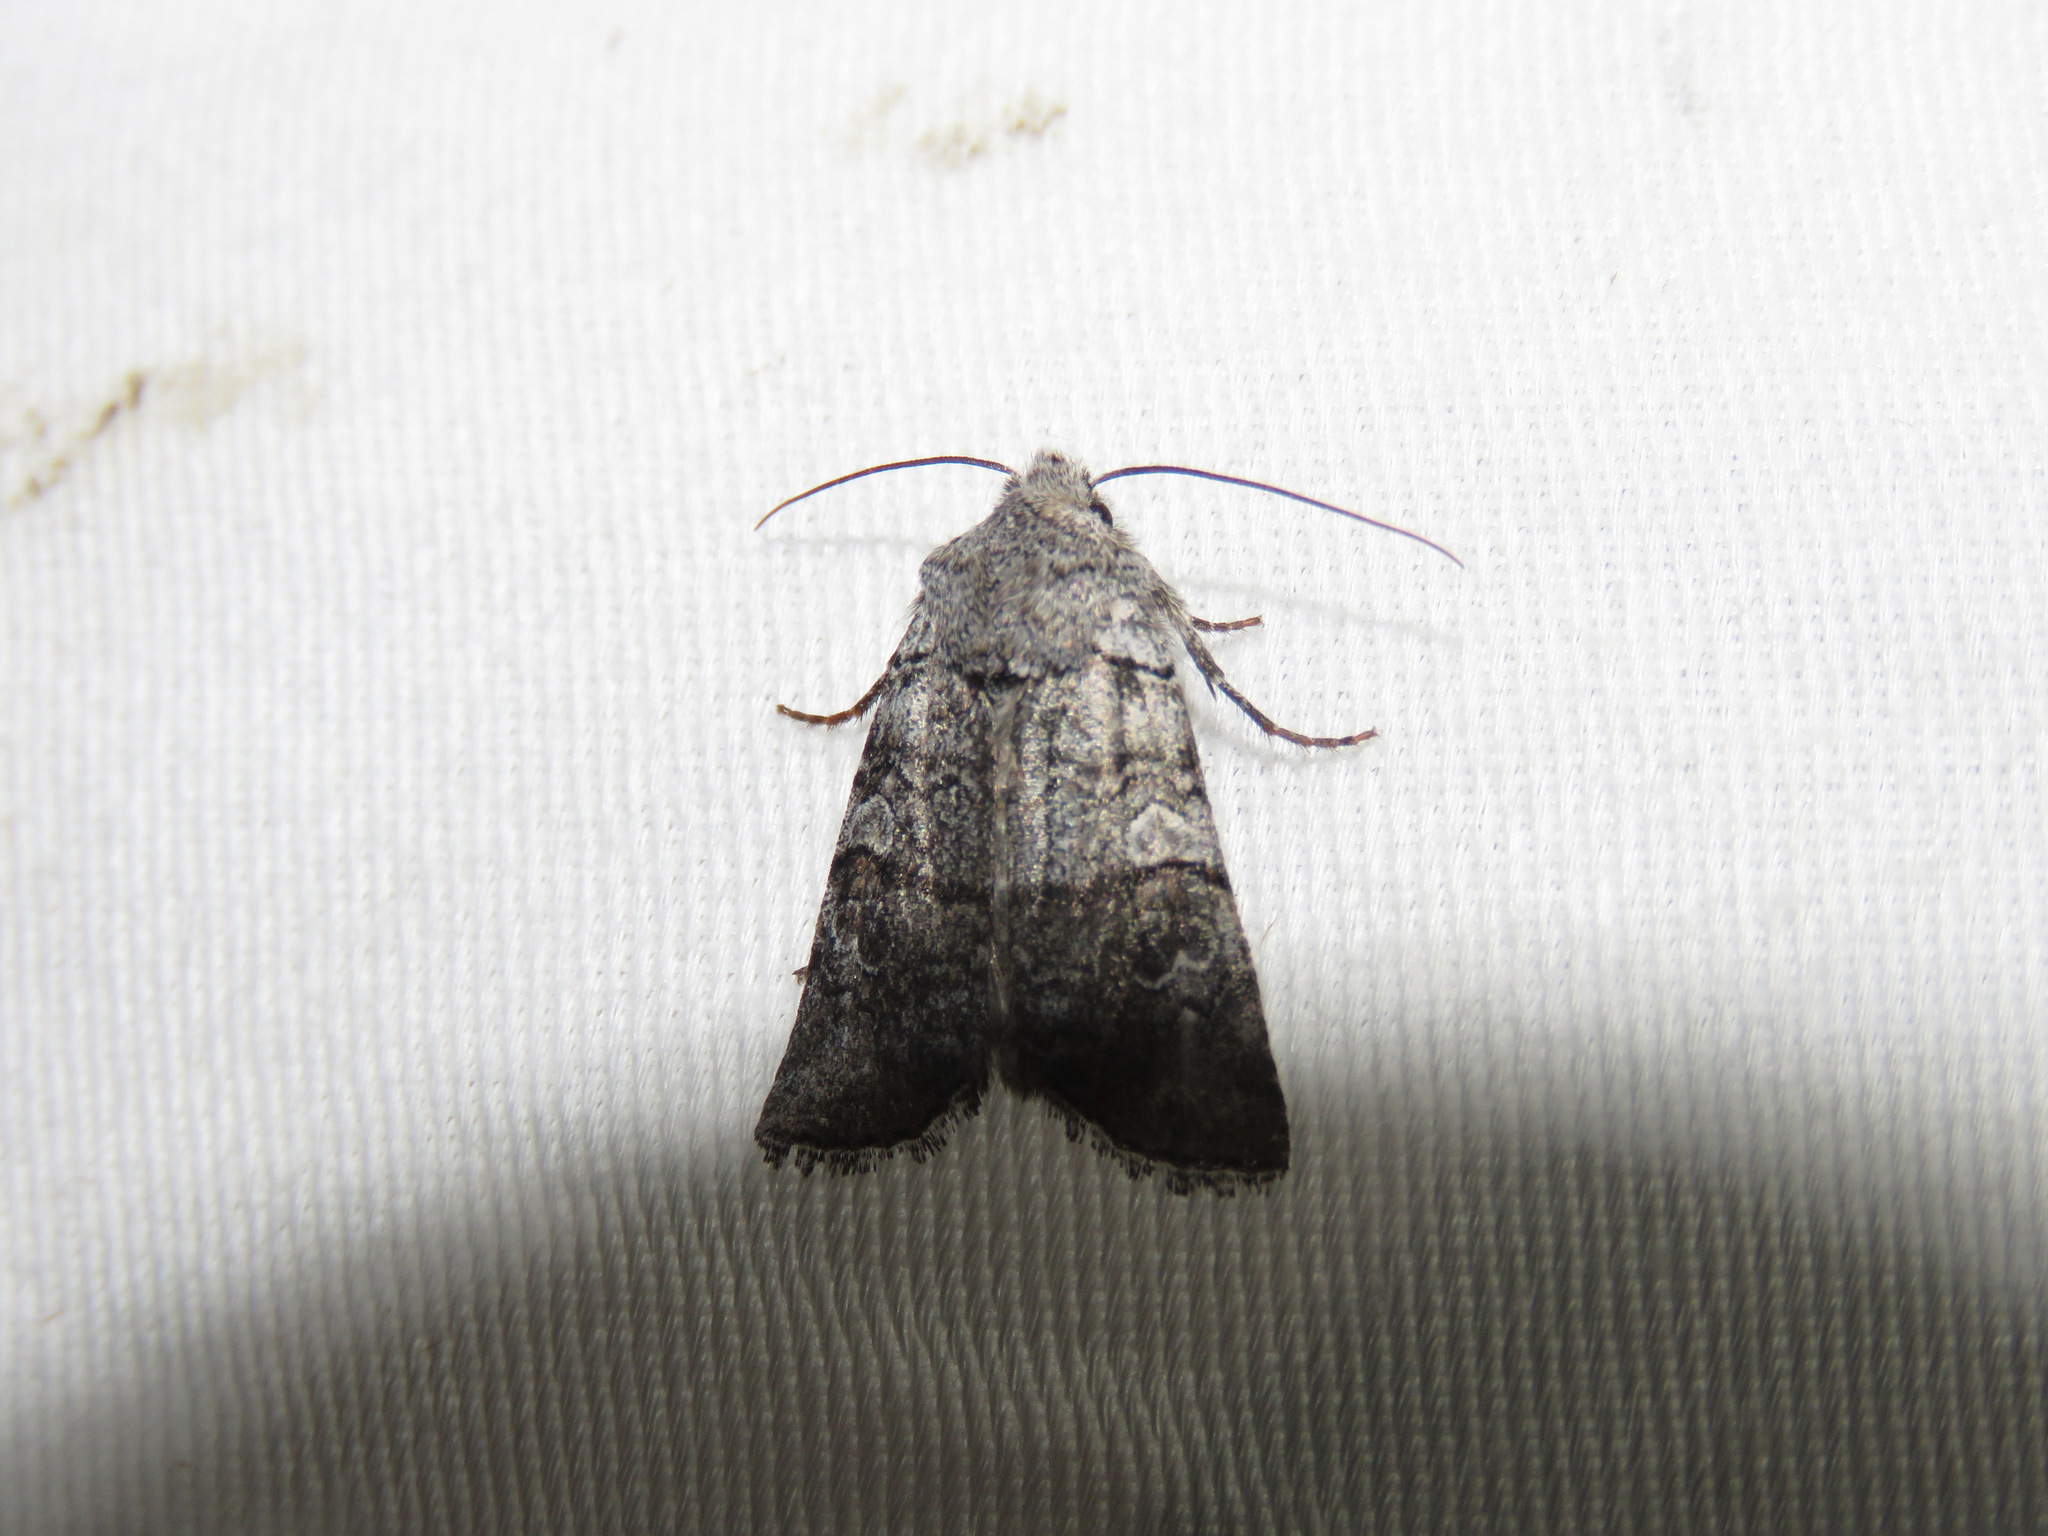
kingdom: Animalia
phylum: Arthropoda
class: Insecta
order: Lepidoptera
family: Noctuidae
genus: Litholomia
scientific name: Litholomia napaea
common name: False pinion moth
